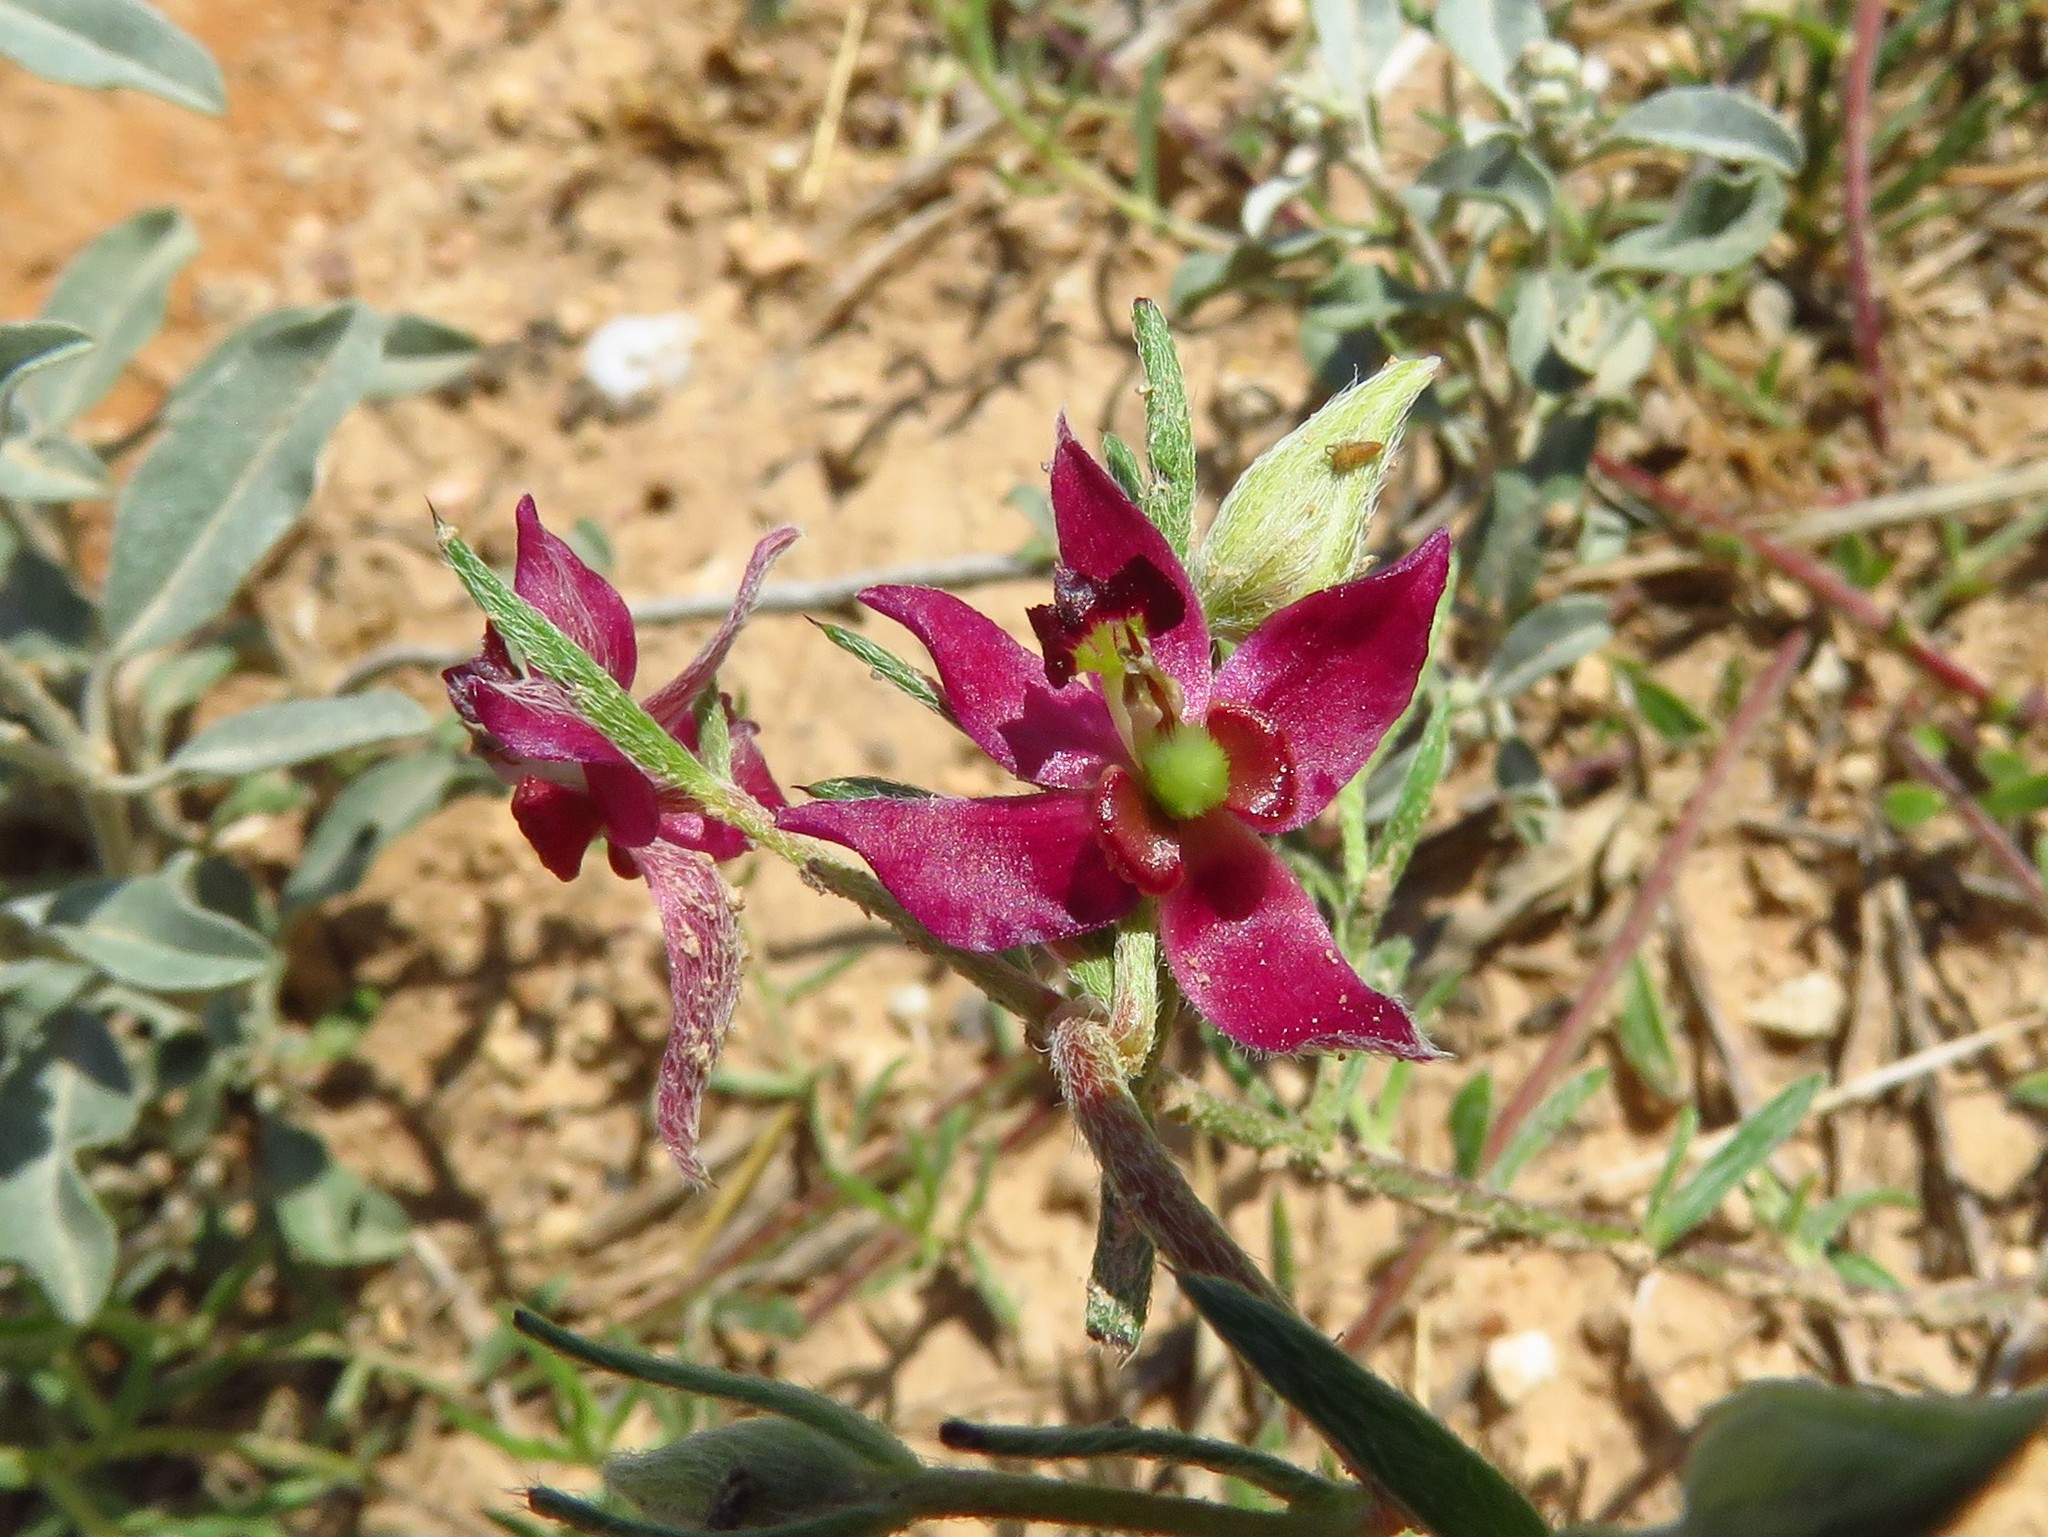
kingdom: Plantae
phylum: Tracheophyta
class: Magnoliopsida
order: Zygophyllales
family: Krameriaceae
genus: Krameria
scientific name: Krameria lanceolata
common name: Ratany
